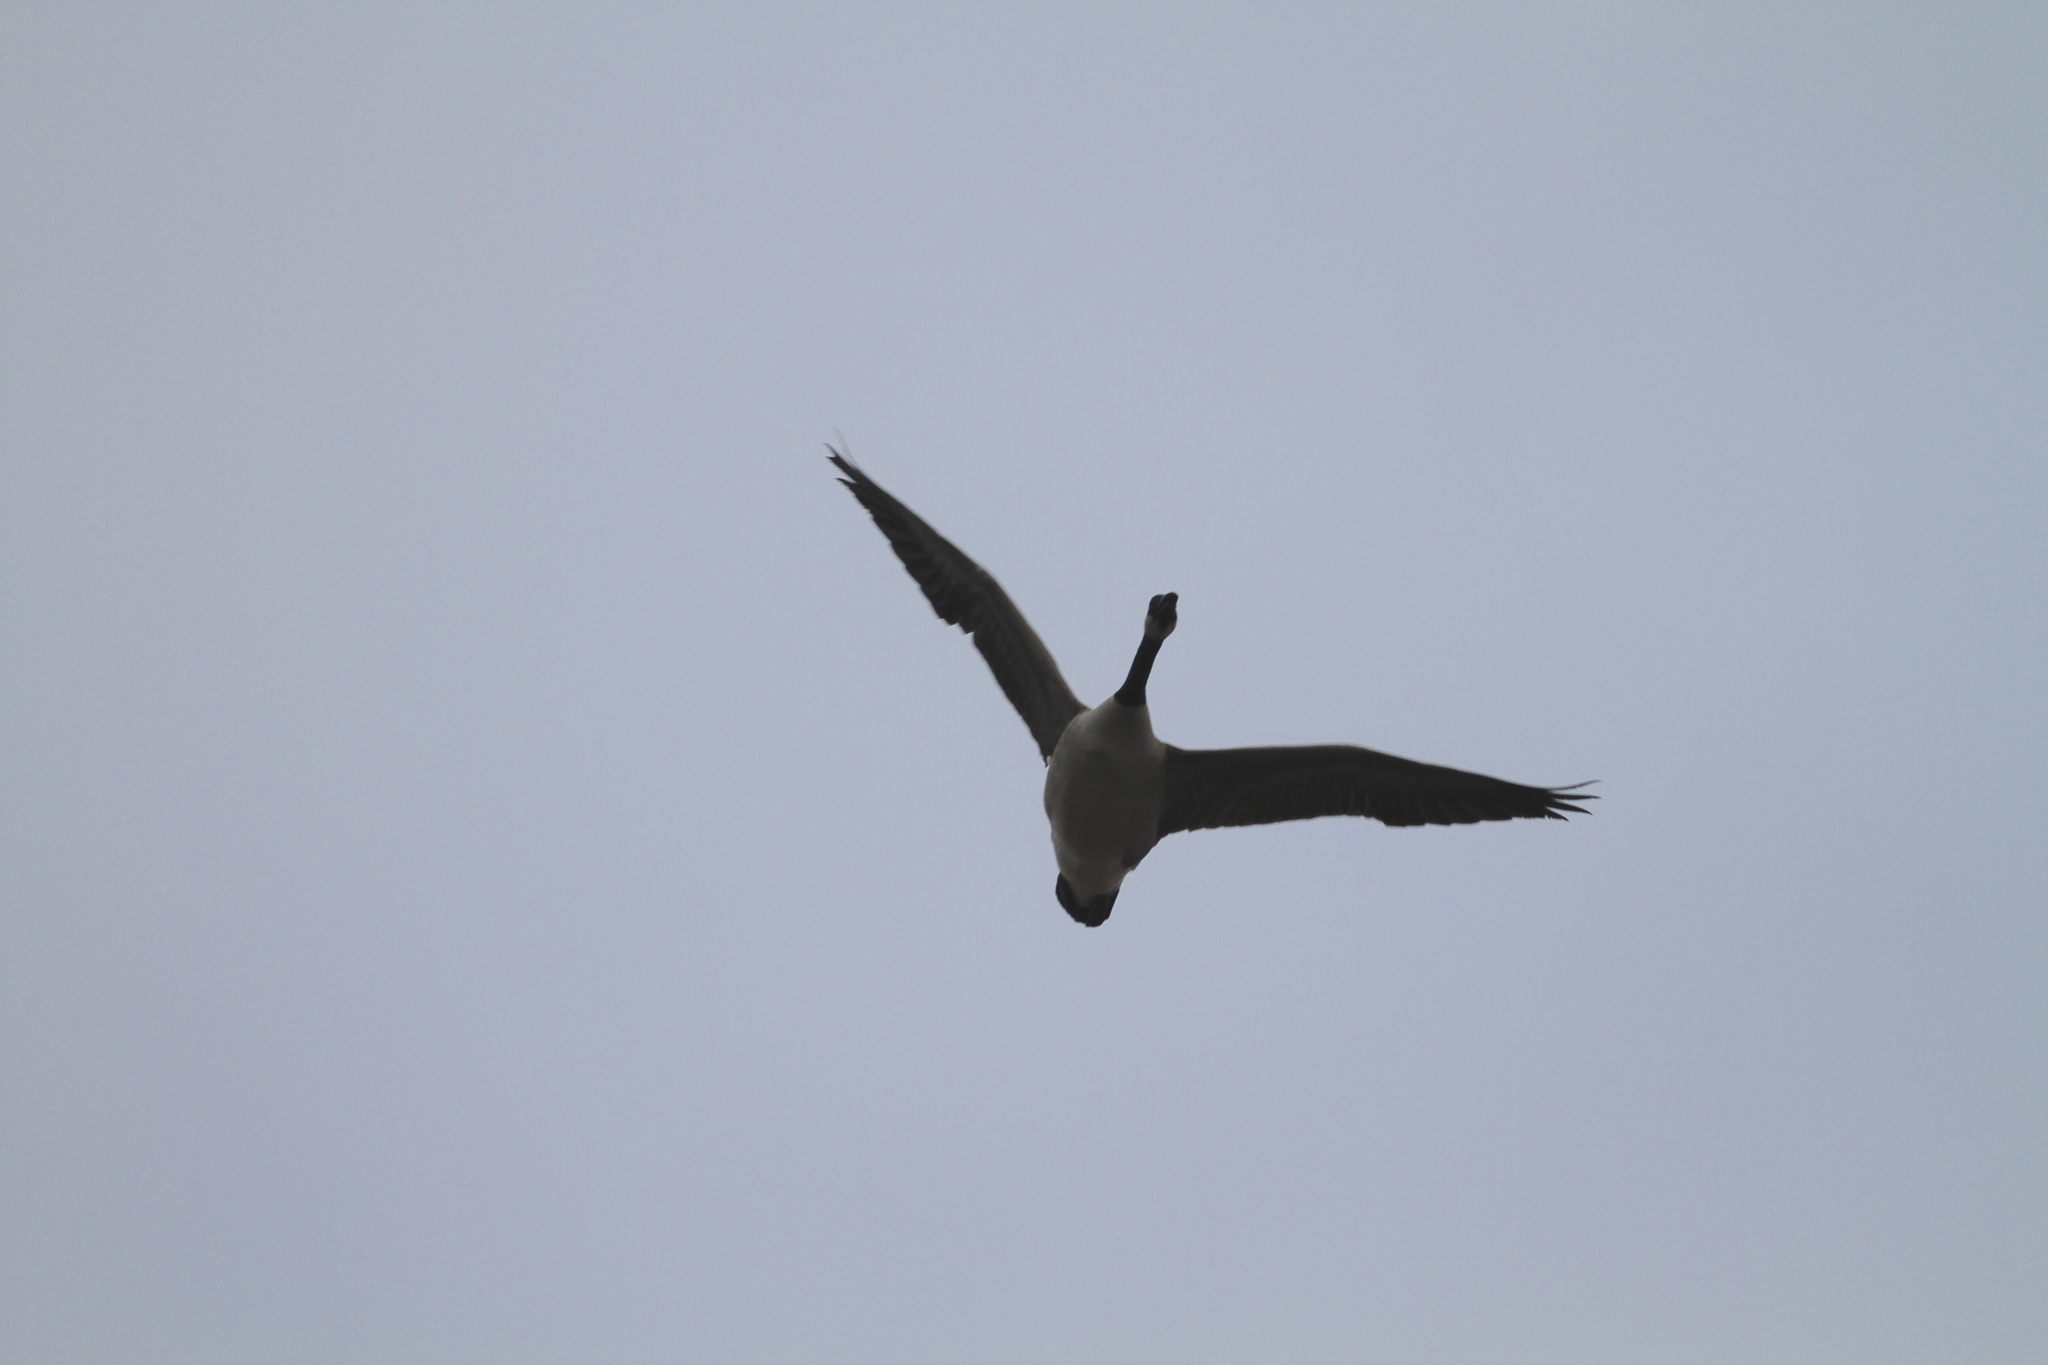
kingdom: Animalia
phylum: Chordata
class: Aves
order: Anseriformes
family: Anatidae
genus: Branta
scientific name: Branta canadensis
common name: Canada goose
